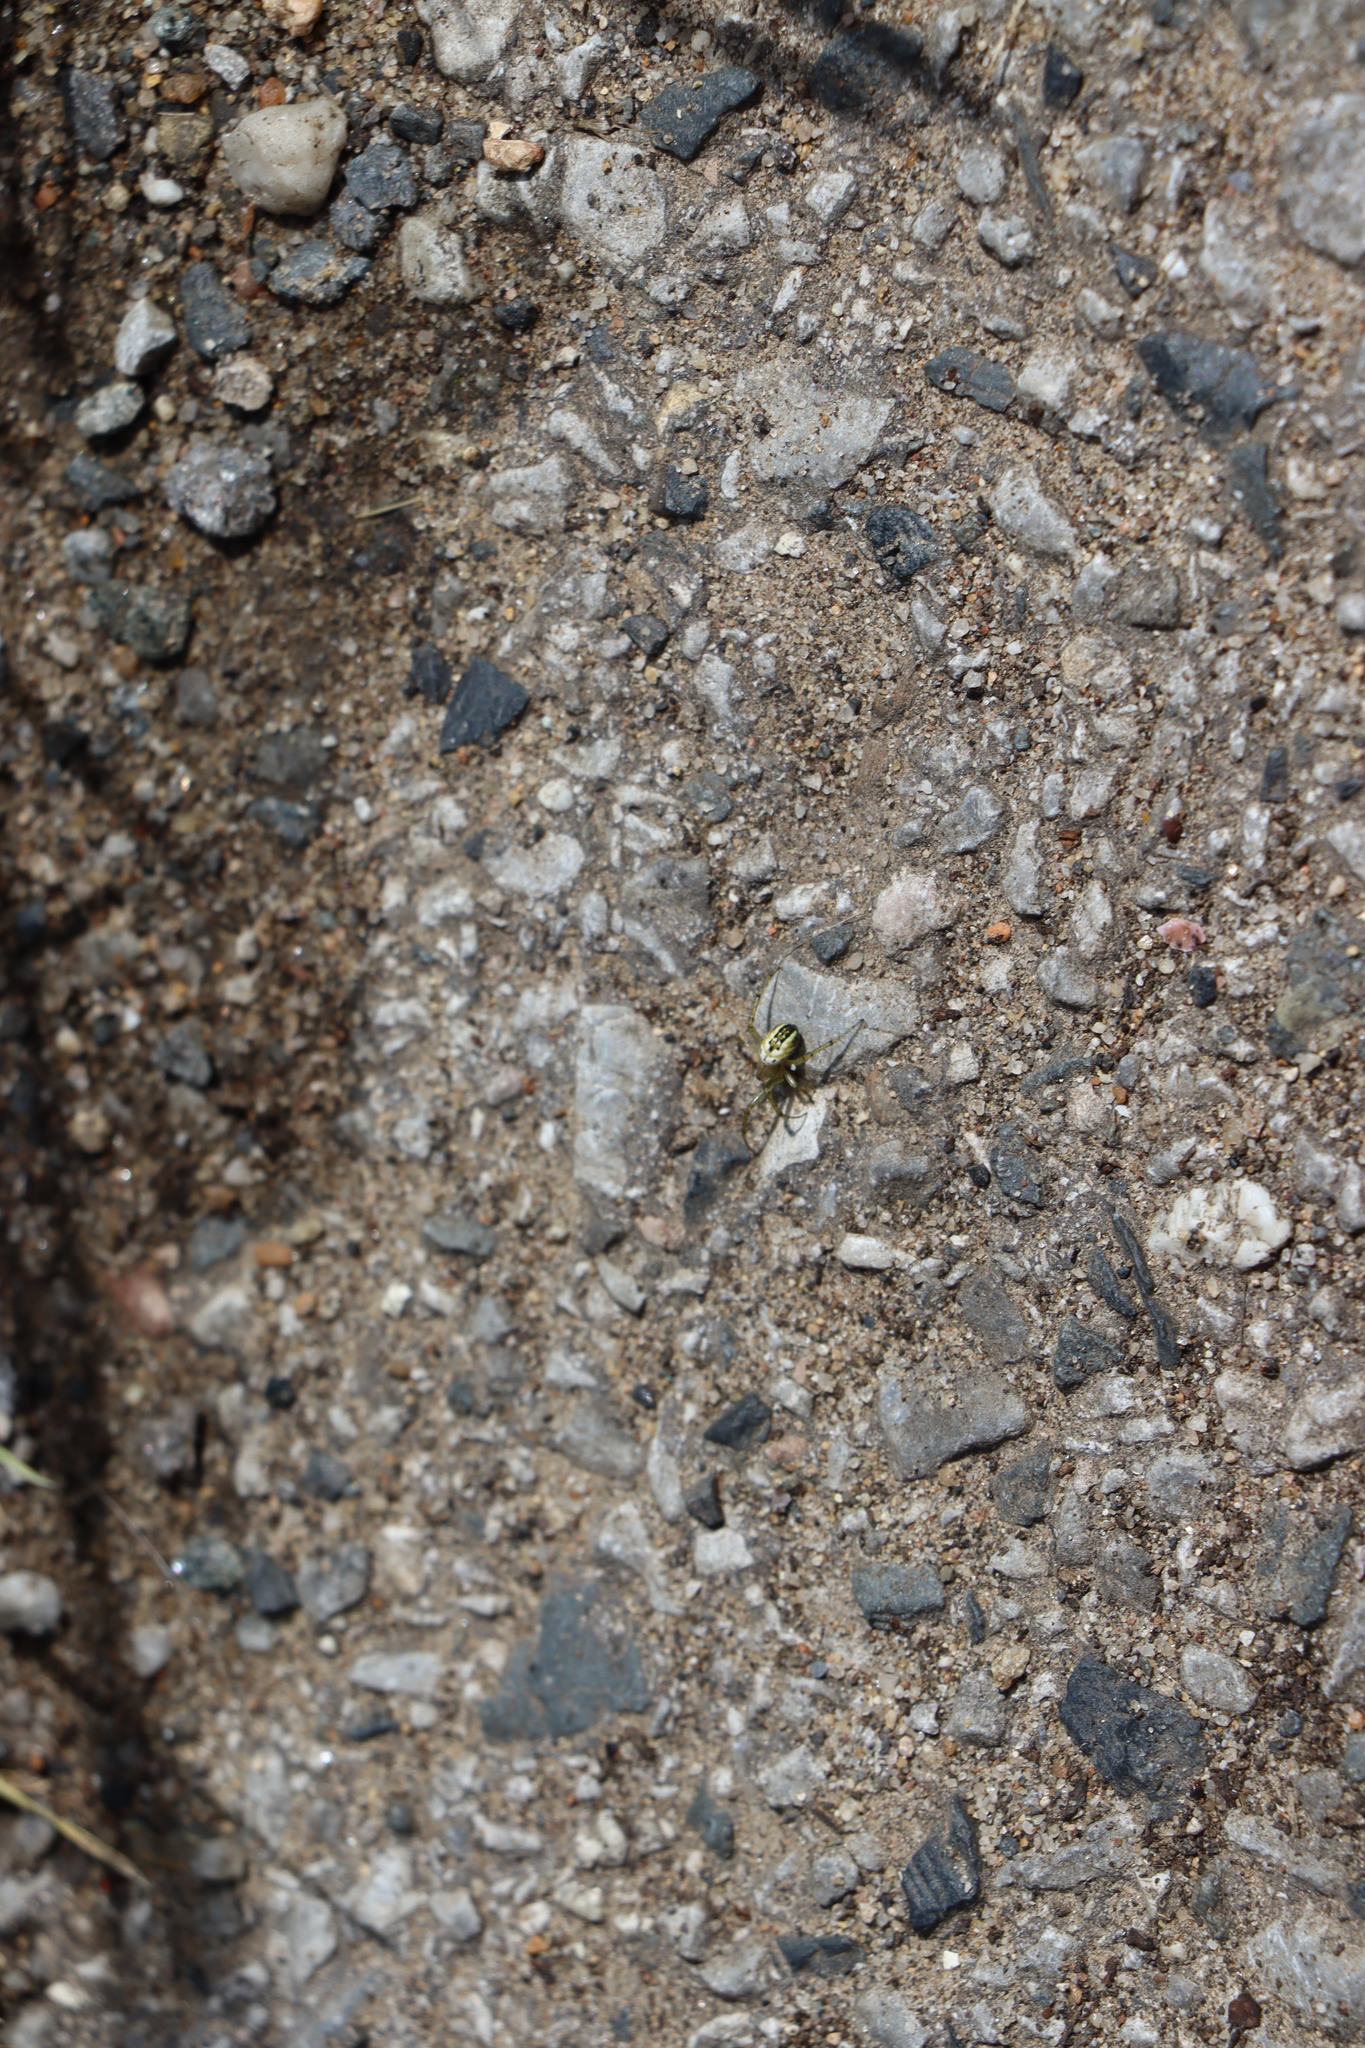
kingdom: Animalia
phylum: Arthropoda
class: Arachnida
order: Araneae
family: Araneidae
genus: Mangora
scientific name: Mangora acalypha
